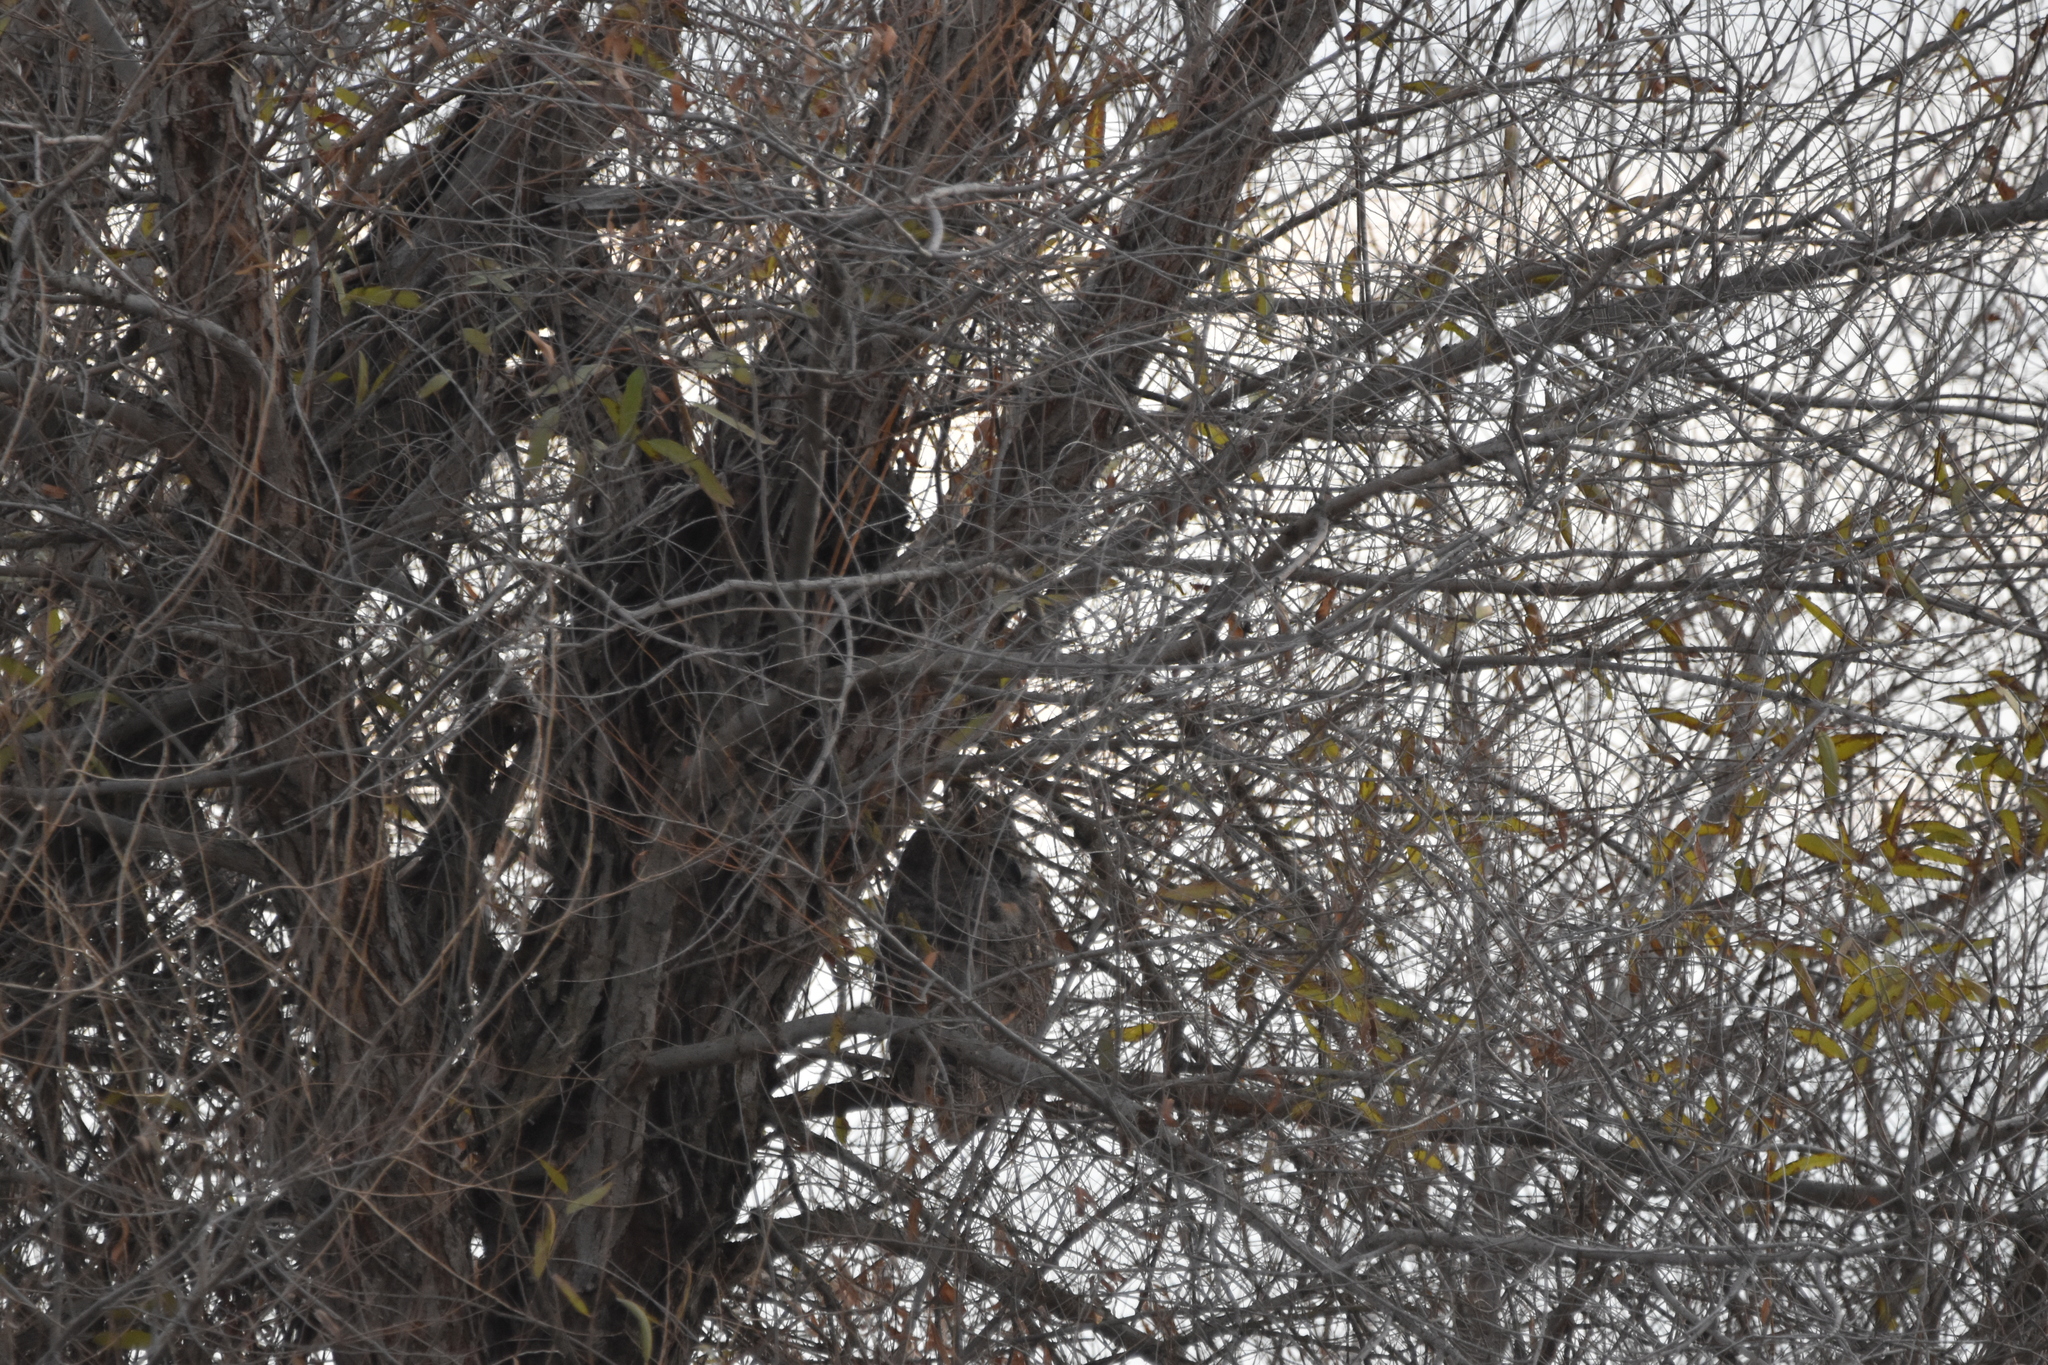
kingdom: Animalia
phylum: Chordata
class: Aves
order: Strigiformes
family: Strigidae
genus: Bubo
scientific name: Bubo virginianus
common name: Great horned owl
